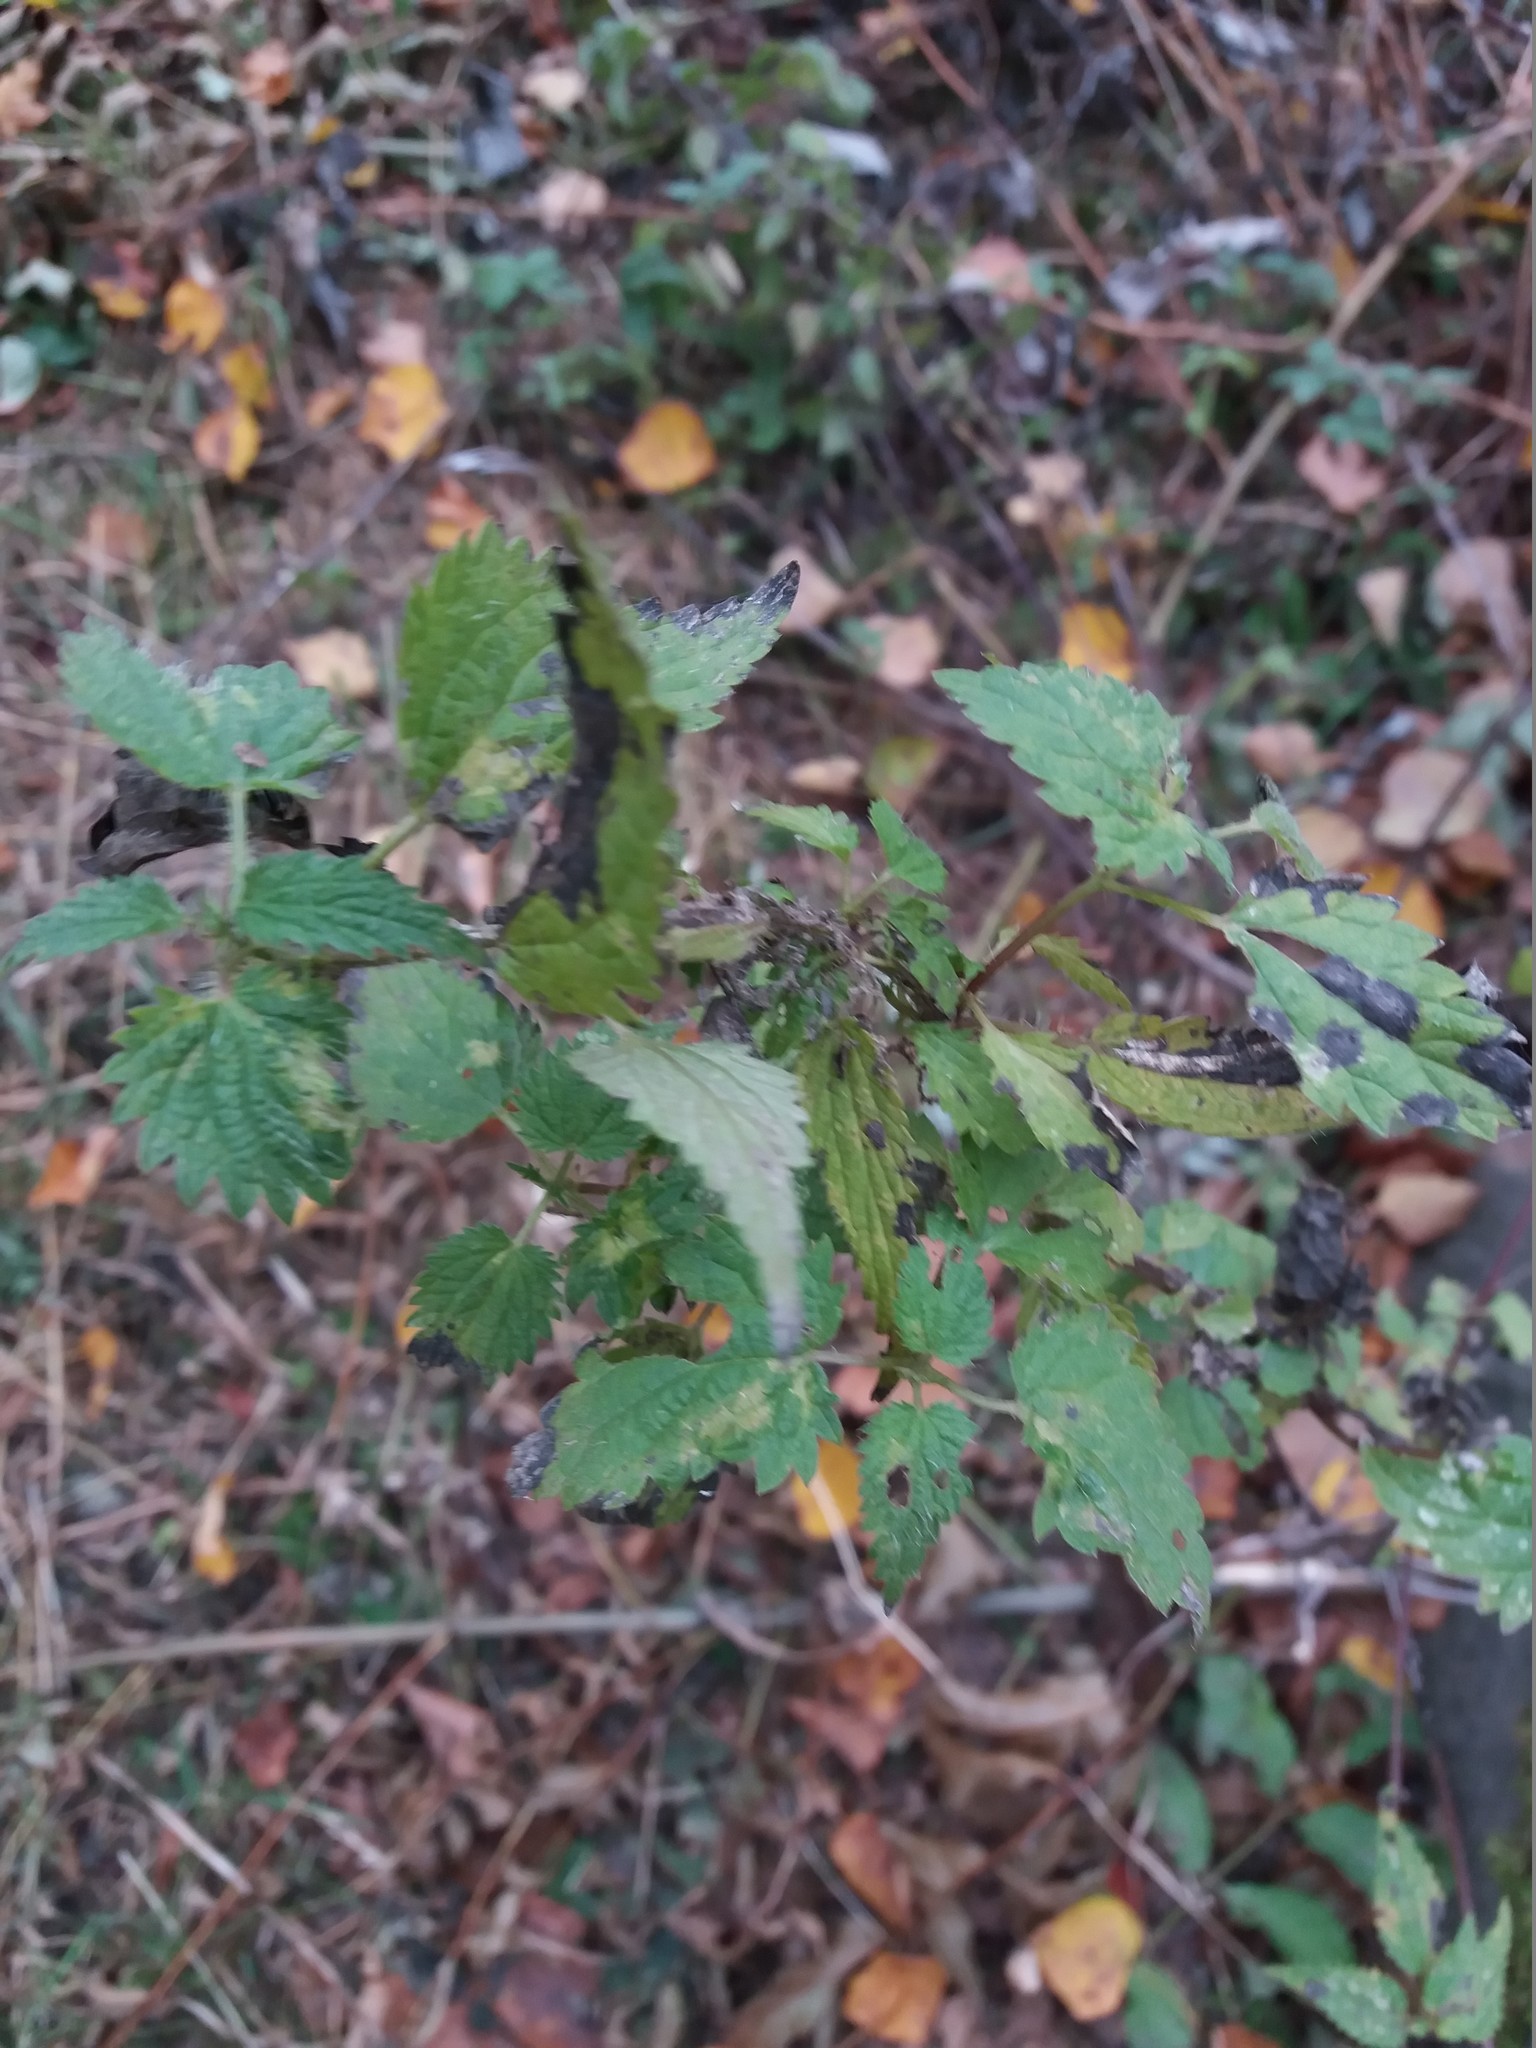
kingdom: Plantae
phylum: Tracheophyta
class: Magnoliopsida
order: Rosales
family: Urticaceae
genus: Urtica
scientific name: Urtica dioica
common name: Common nettle
